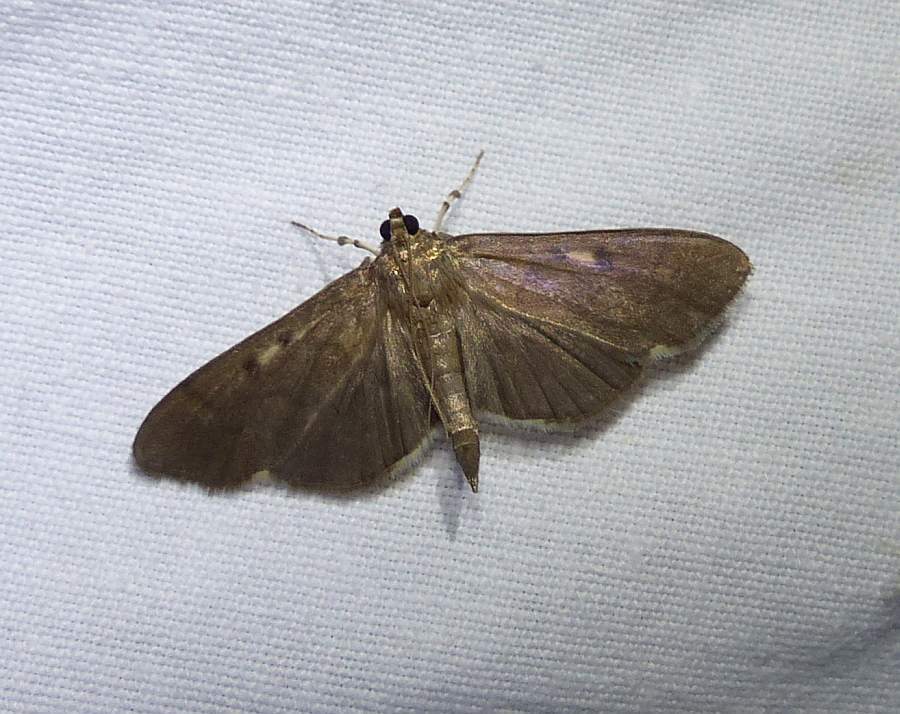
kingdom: Animalia
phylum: Arthropoda
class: Insecta
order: Lepidoptera
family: Crambidae
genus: Herpetogramma
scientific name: Herpetogramma sphingealis
